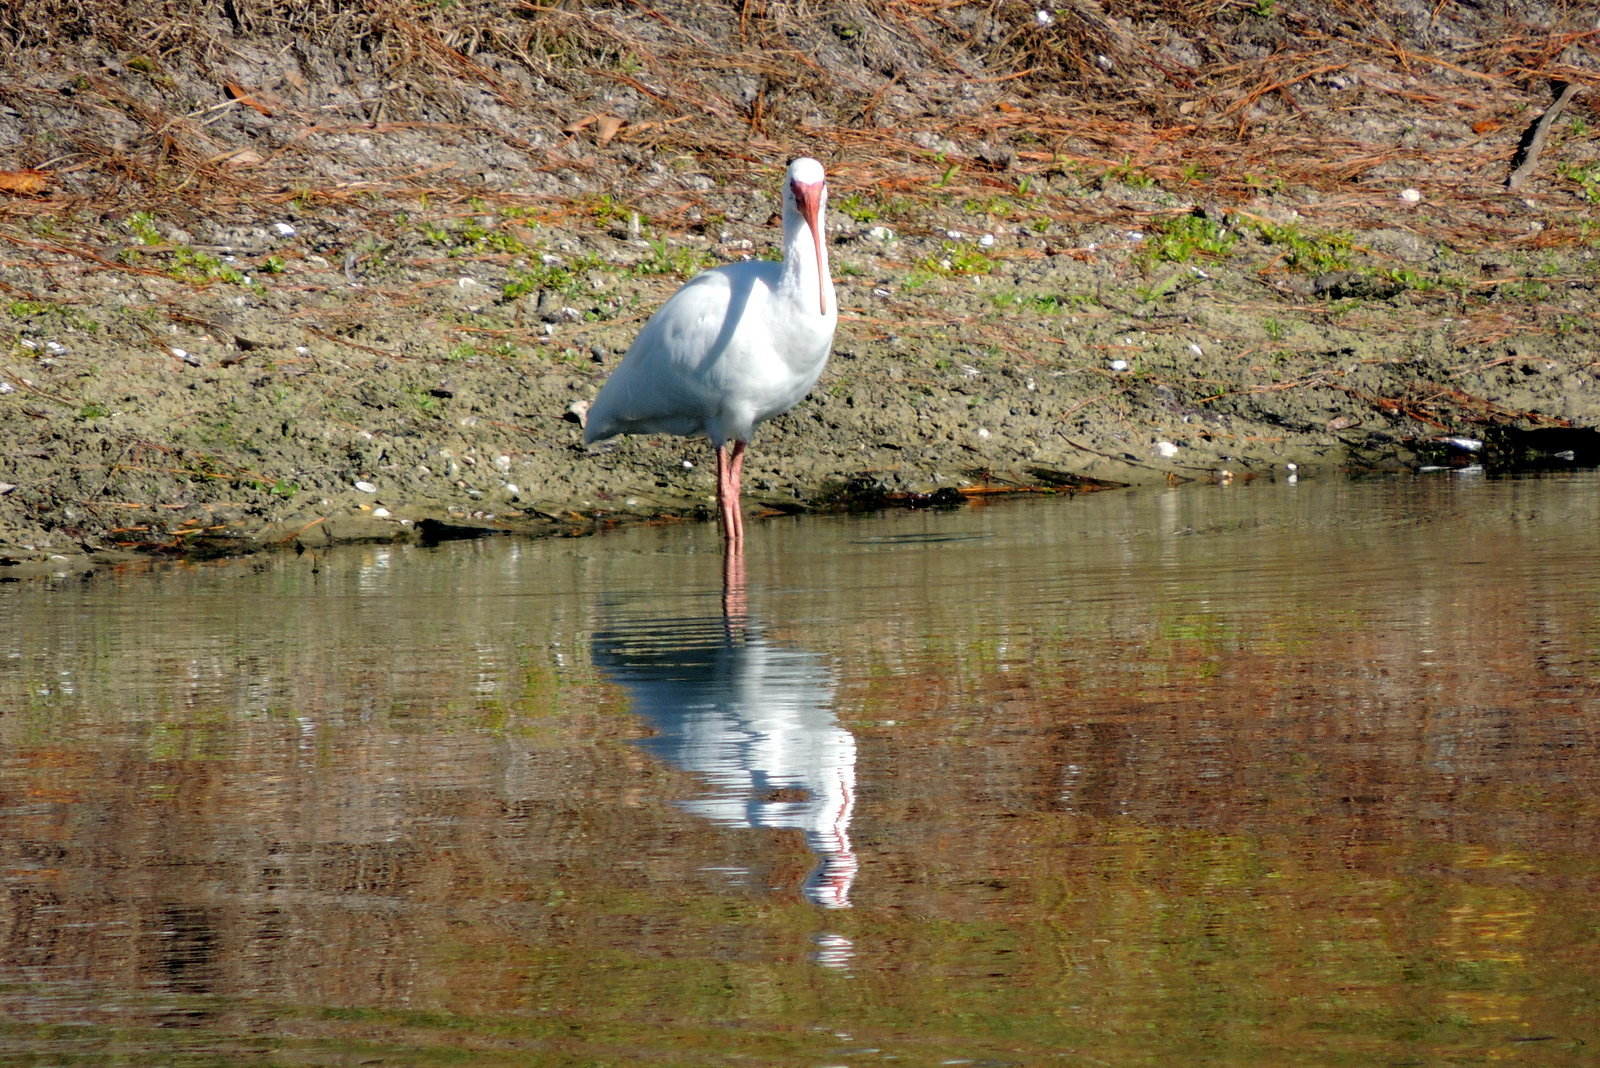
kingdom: Animalia
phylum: Chordata
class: Aves
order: Pelecaniformes
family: Threskiornithidae
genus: Eudocimus
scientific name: Eudocimus albus
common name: White ibis
